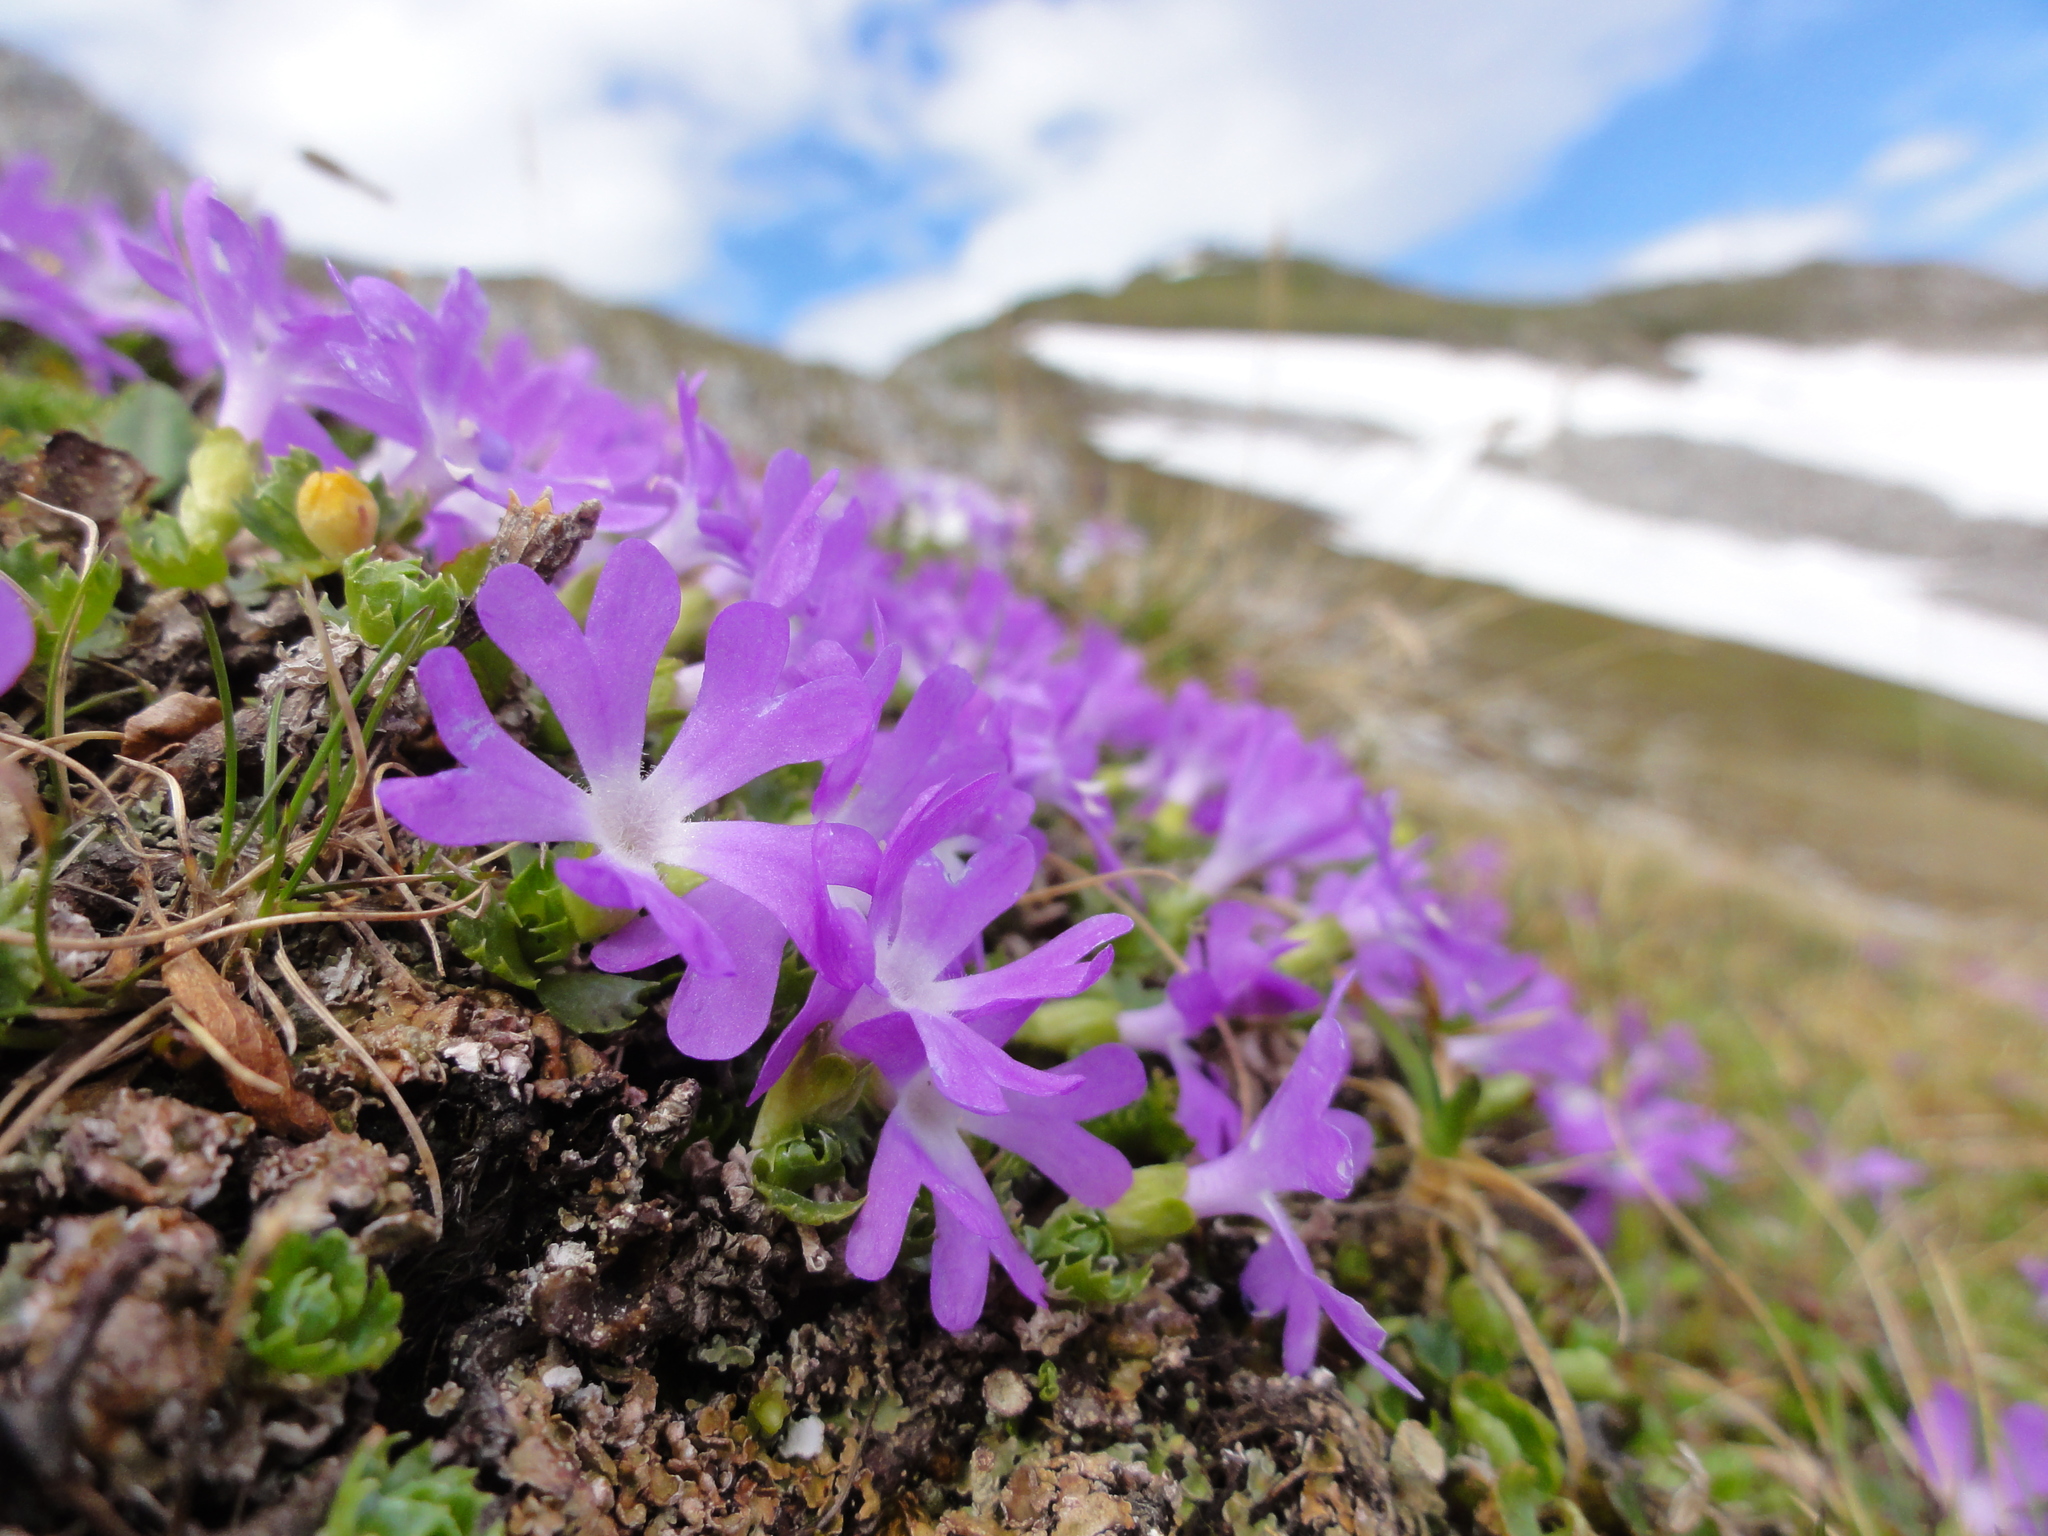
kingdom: Plantae
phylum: Tracheophyta
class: Magnoliopsida
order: Ericales
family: Primulaceae
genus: Primula
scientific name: Primula minima
